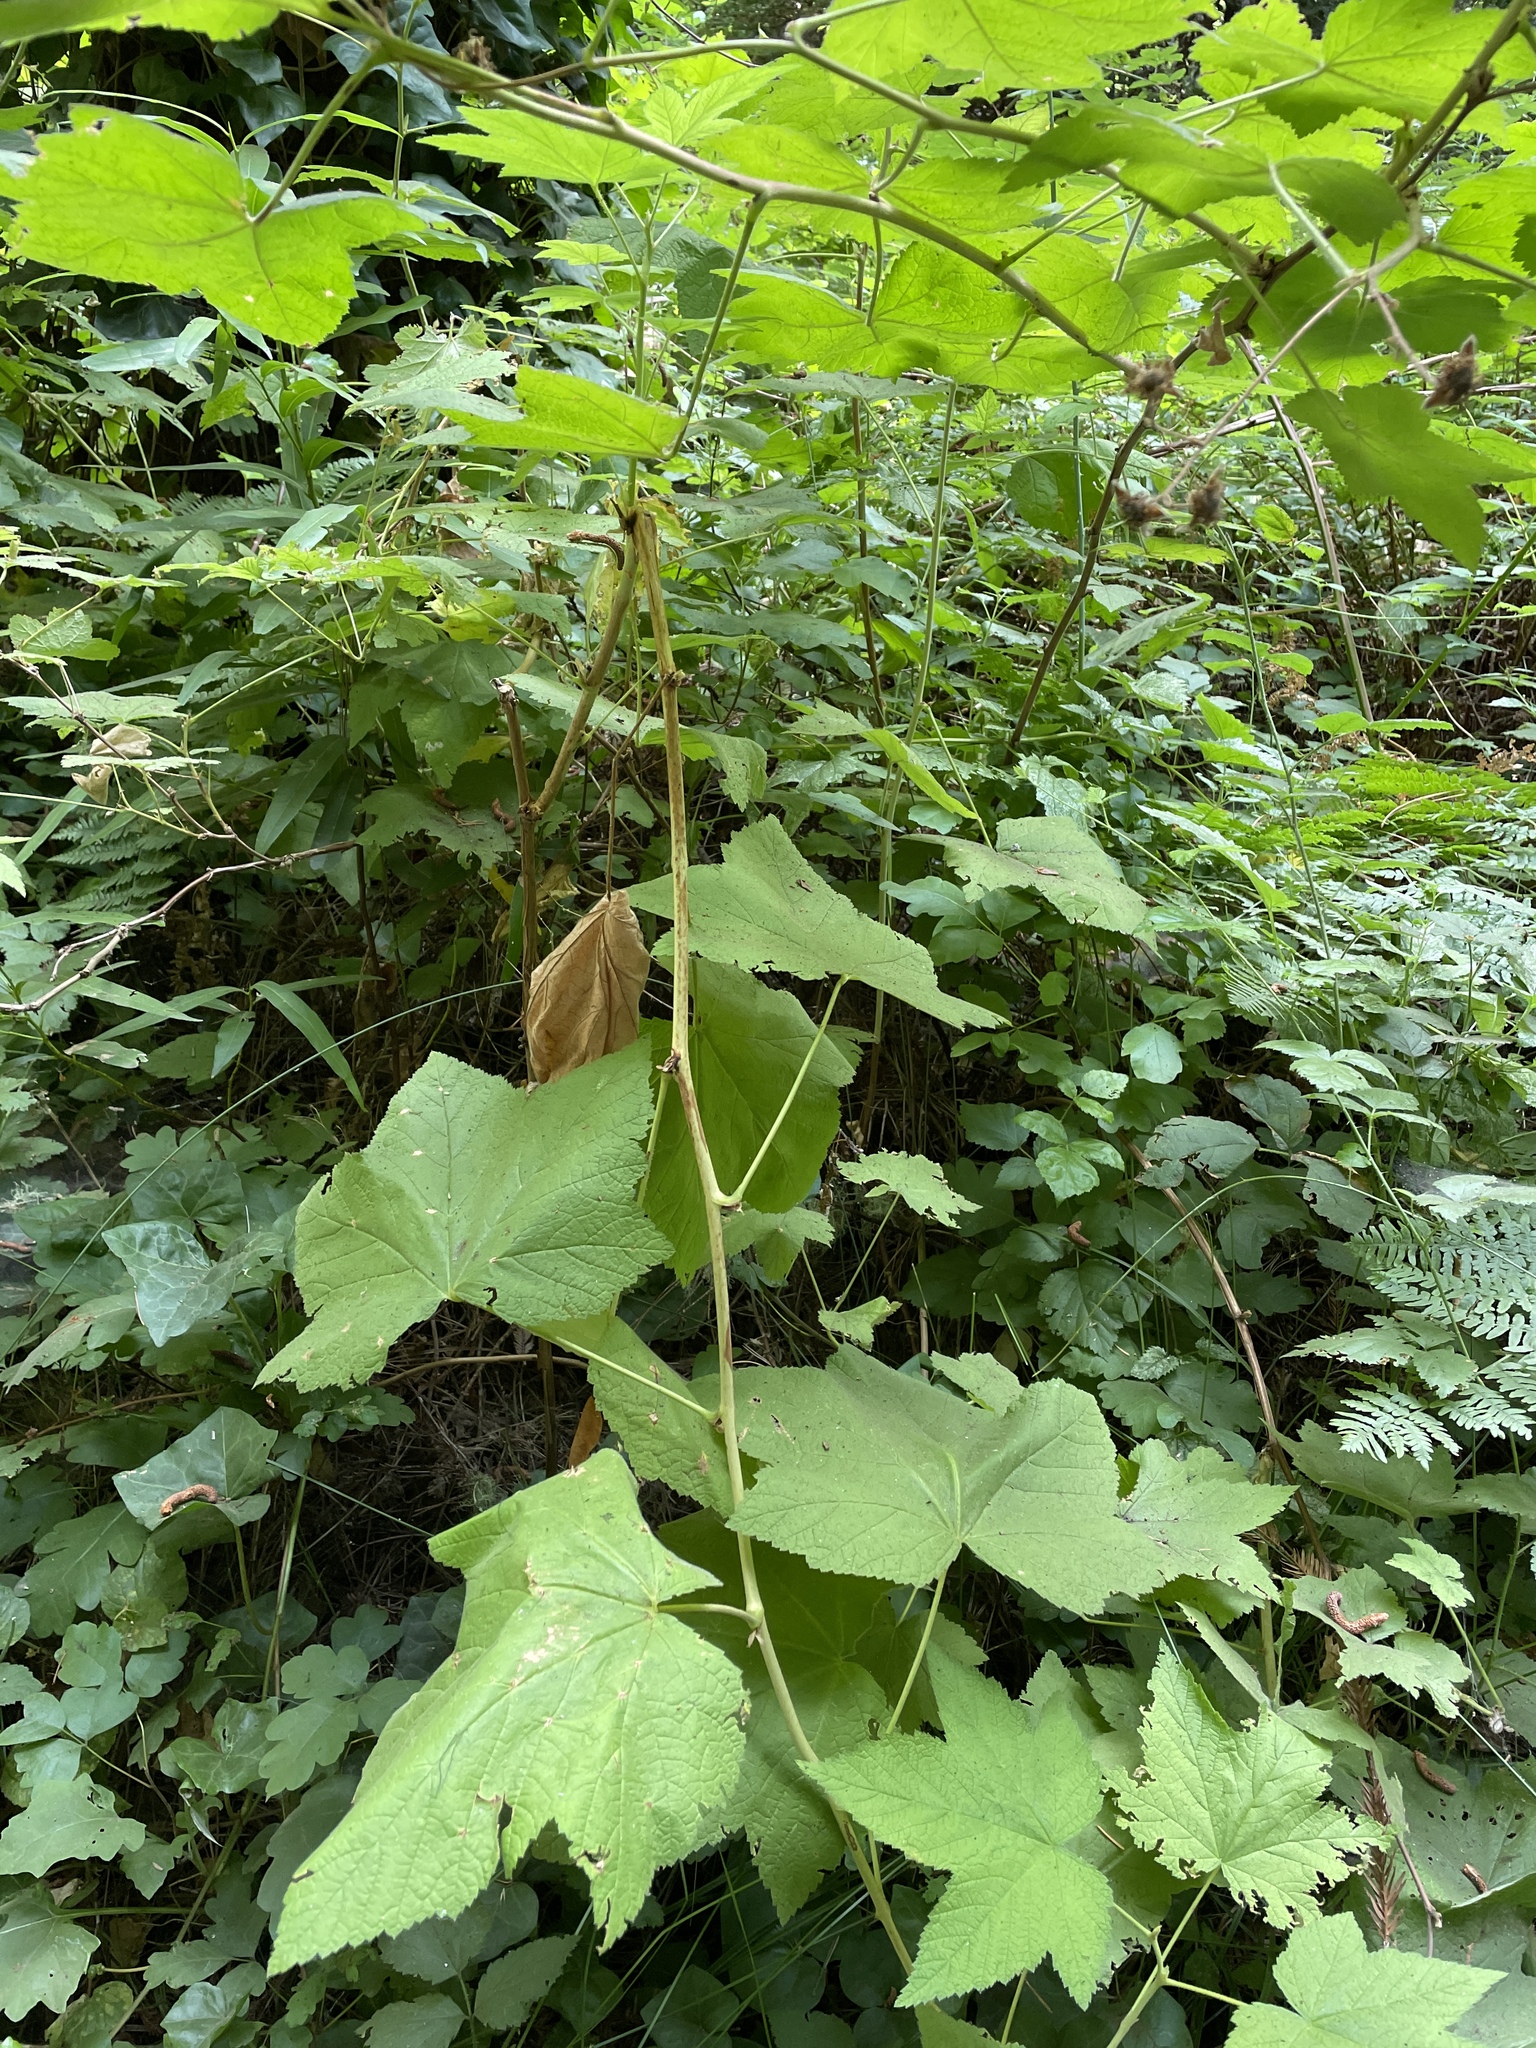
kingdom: Plantae
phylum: Tracheophyta
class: Magnoliopsida
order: Rosales
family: Rosaceae
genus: Rubus
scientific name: Rubus parviflorus
